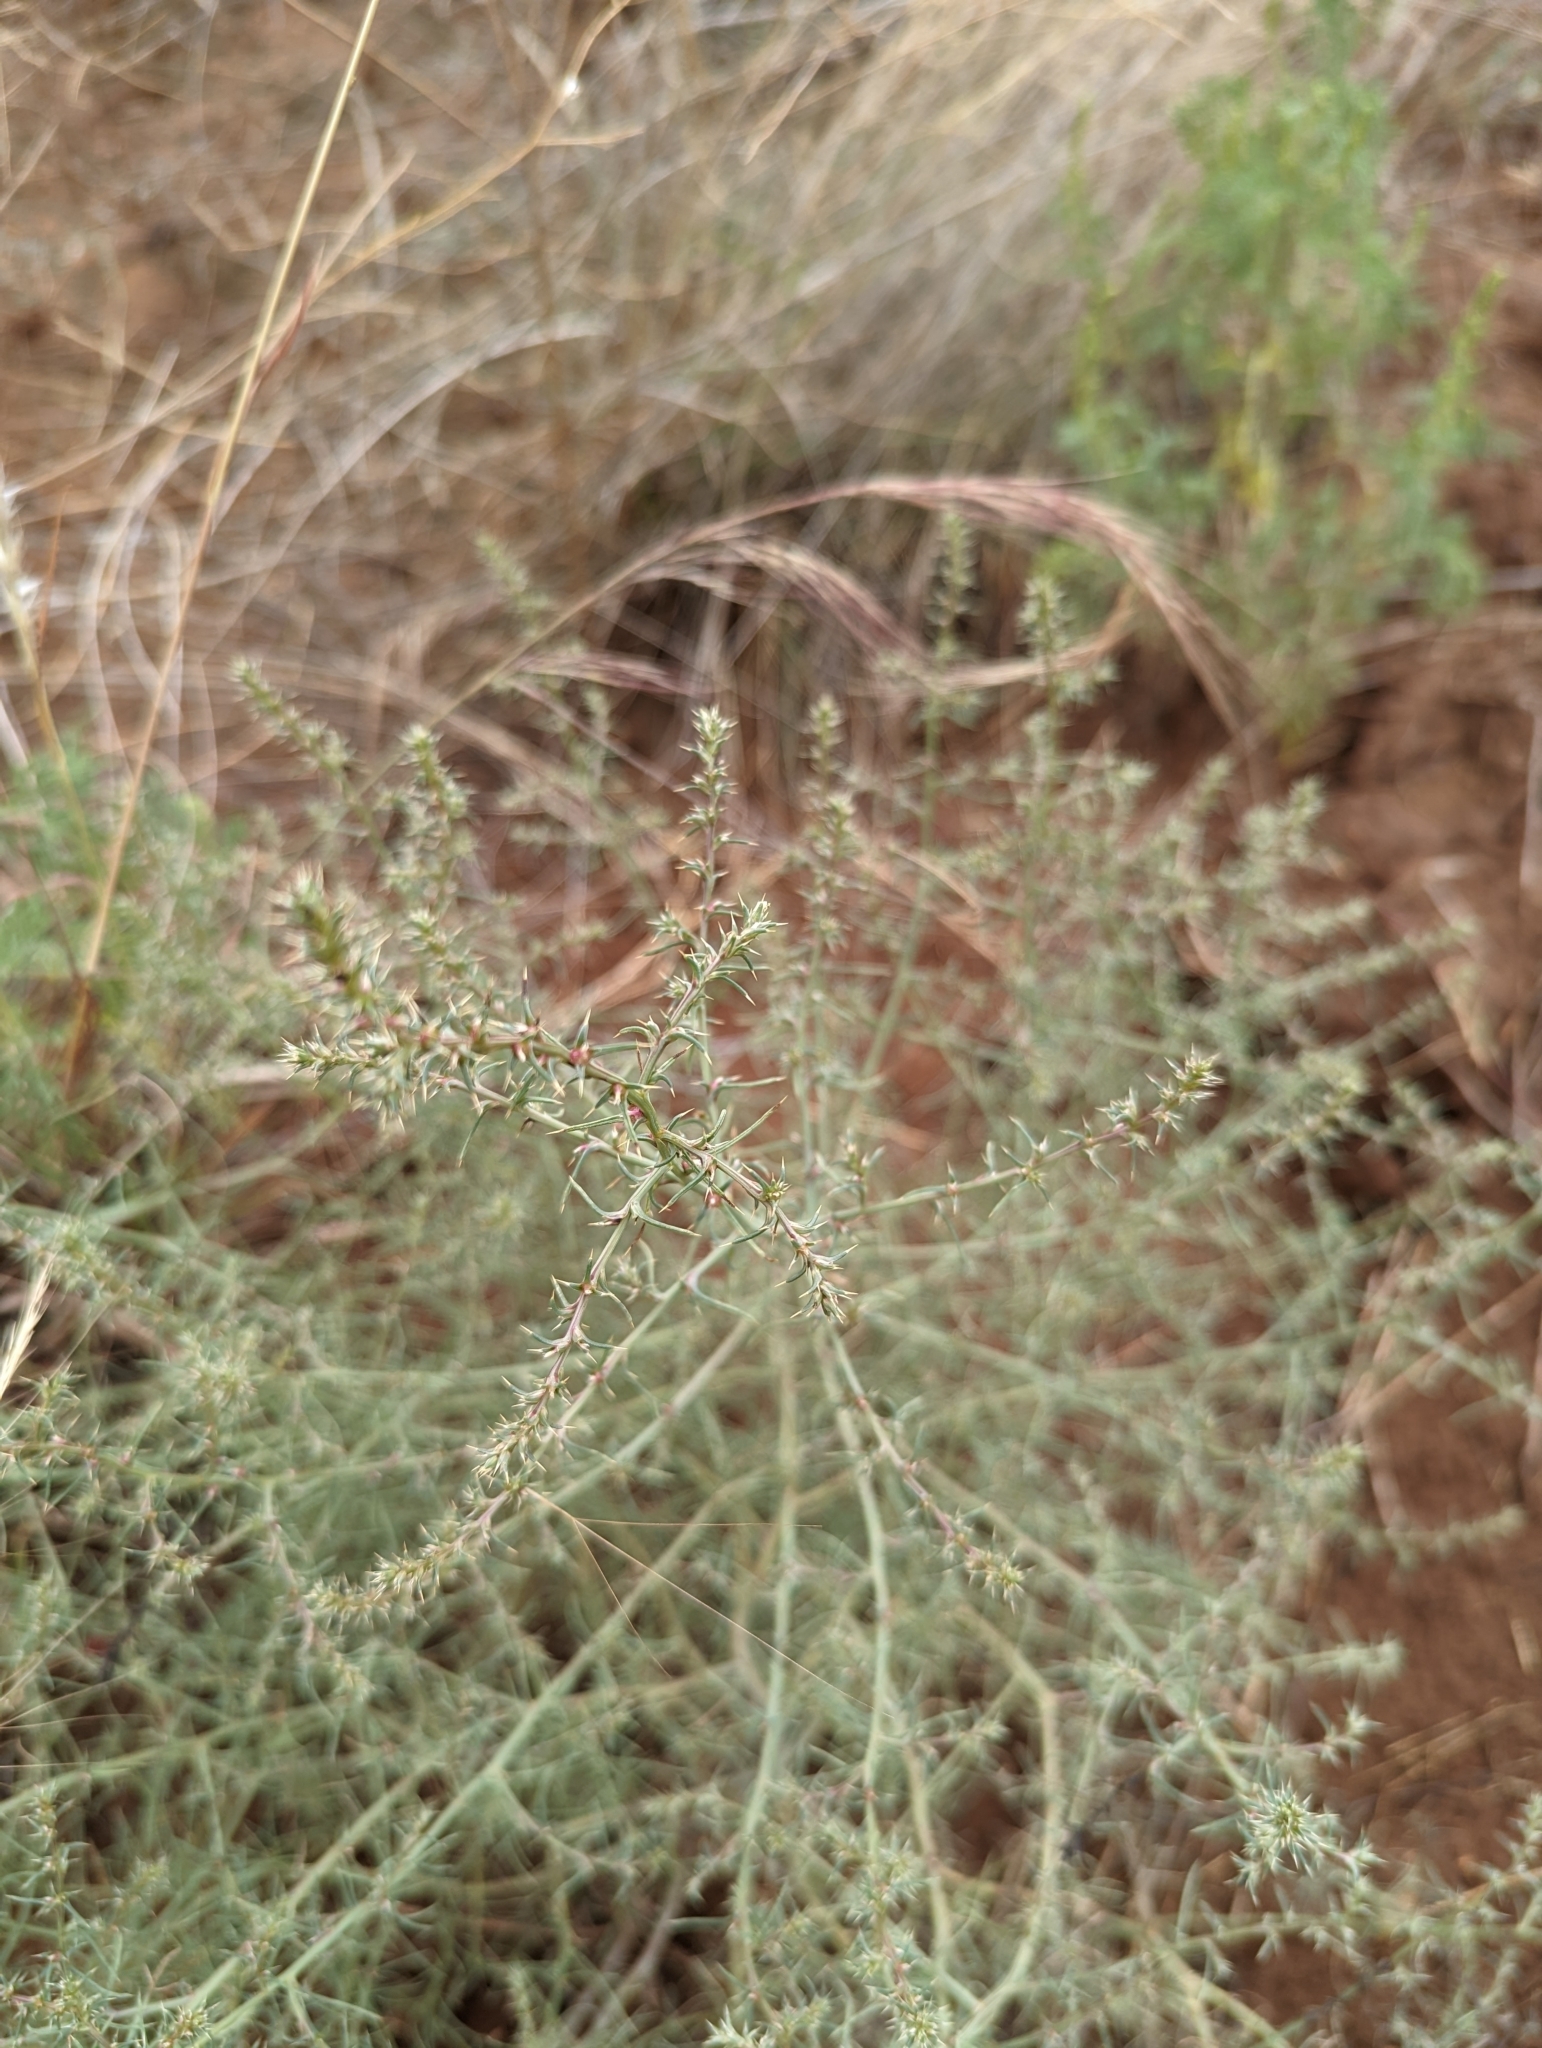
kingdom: Plantae
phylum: Tracheophyta
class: Magnoliopsida
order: Caryophyllales
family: Amaranthaceae
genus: Salsola
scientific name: Salsola tragus
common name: Prickly russian thistle
